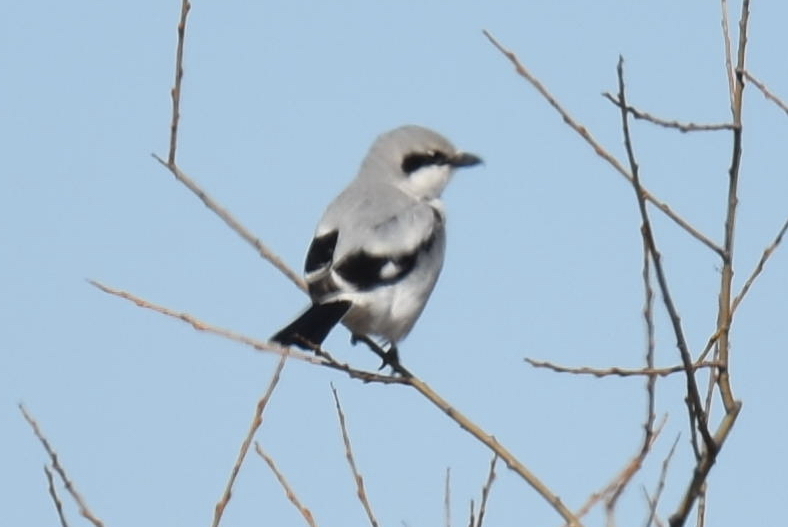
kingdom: Animalia
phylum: Chordata
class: Aves
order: Passeriformes
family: Laniidae
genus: Lanius
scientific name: Lanius excubitor
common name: Great grey shrike
